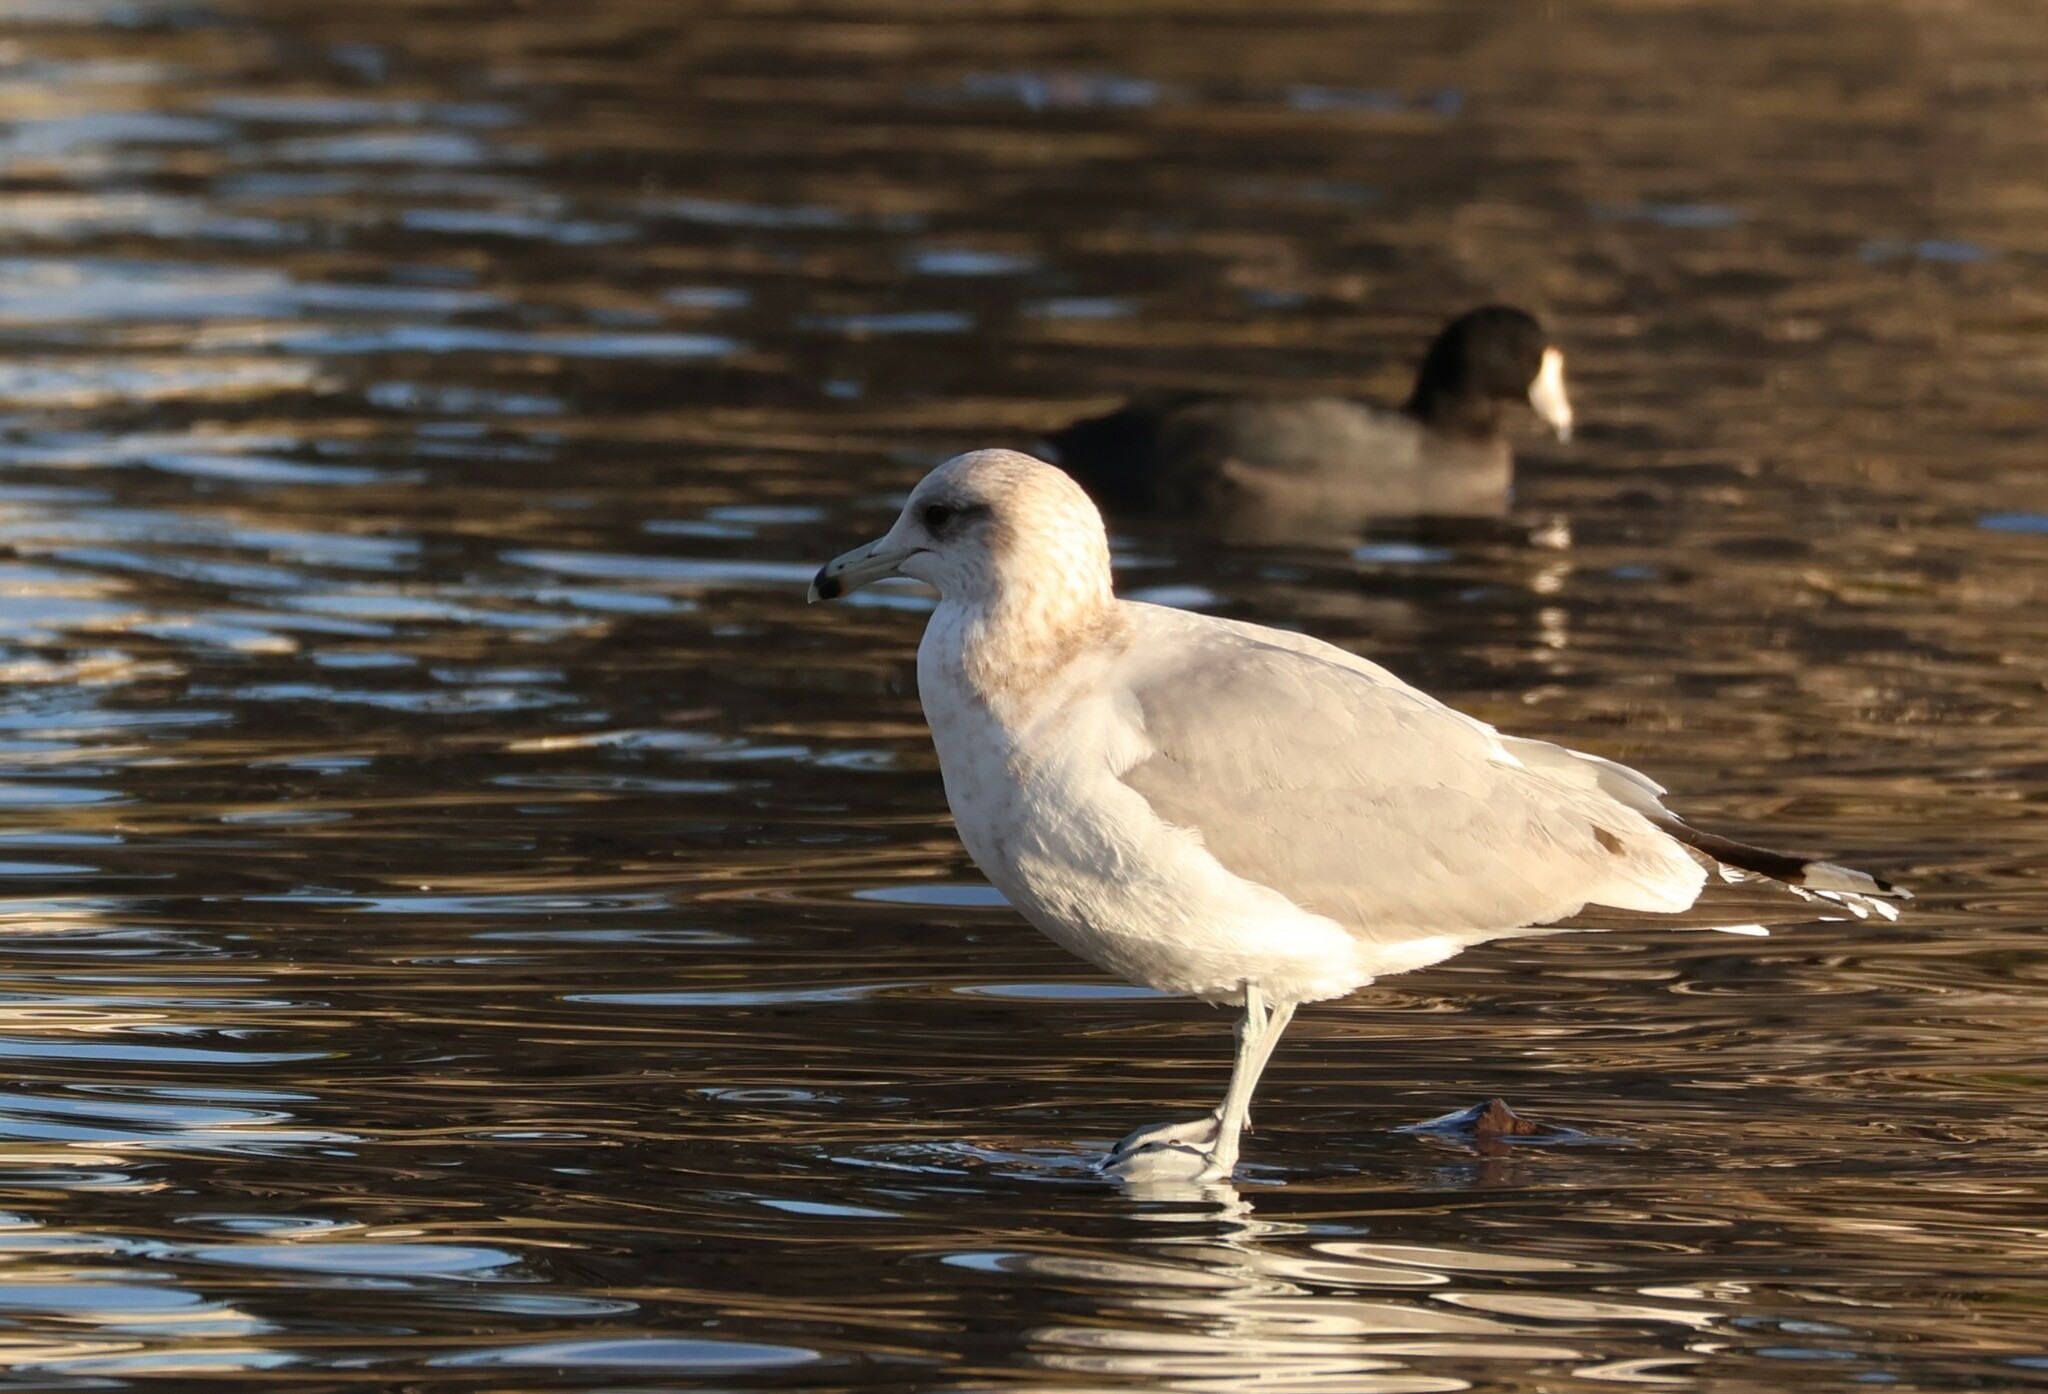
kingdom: Animalia
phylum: Chordata
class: Aves
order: Charadriiformes
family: Laridae
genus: Larus
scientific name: Larus californicus
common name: California gull
